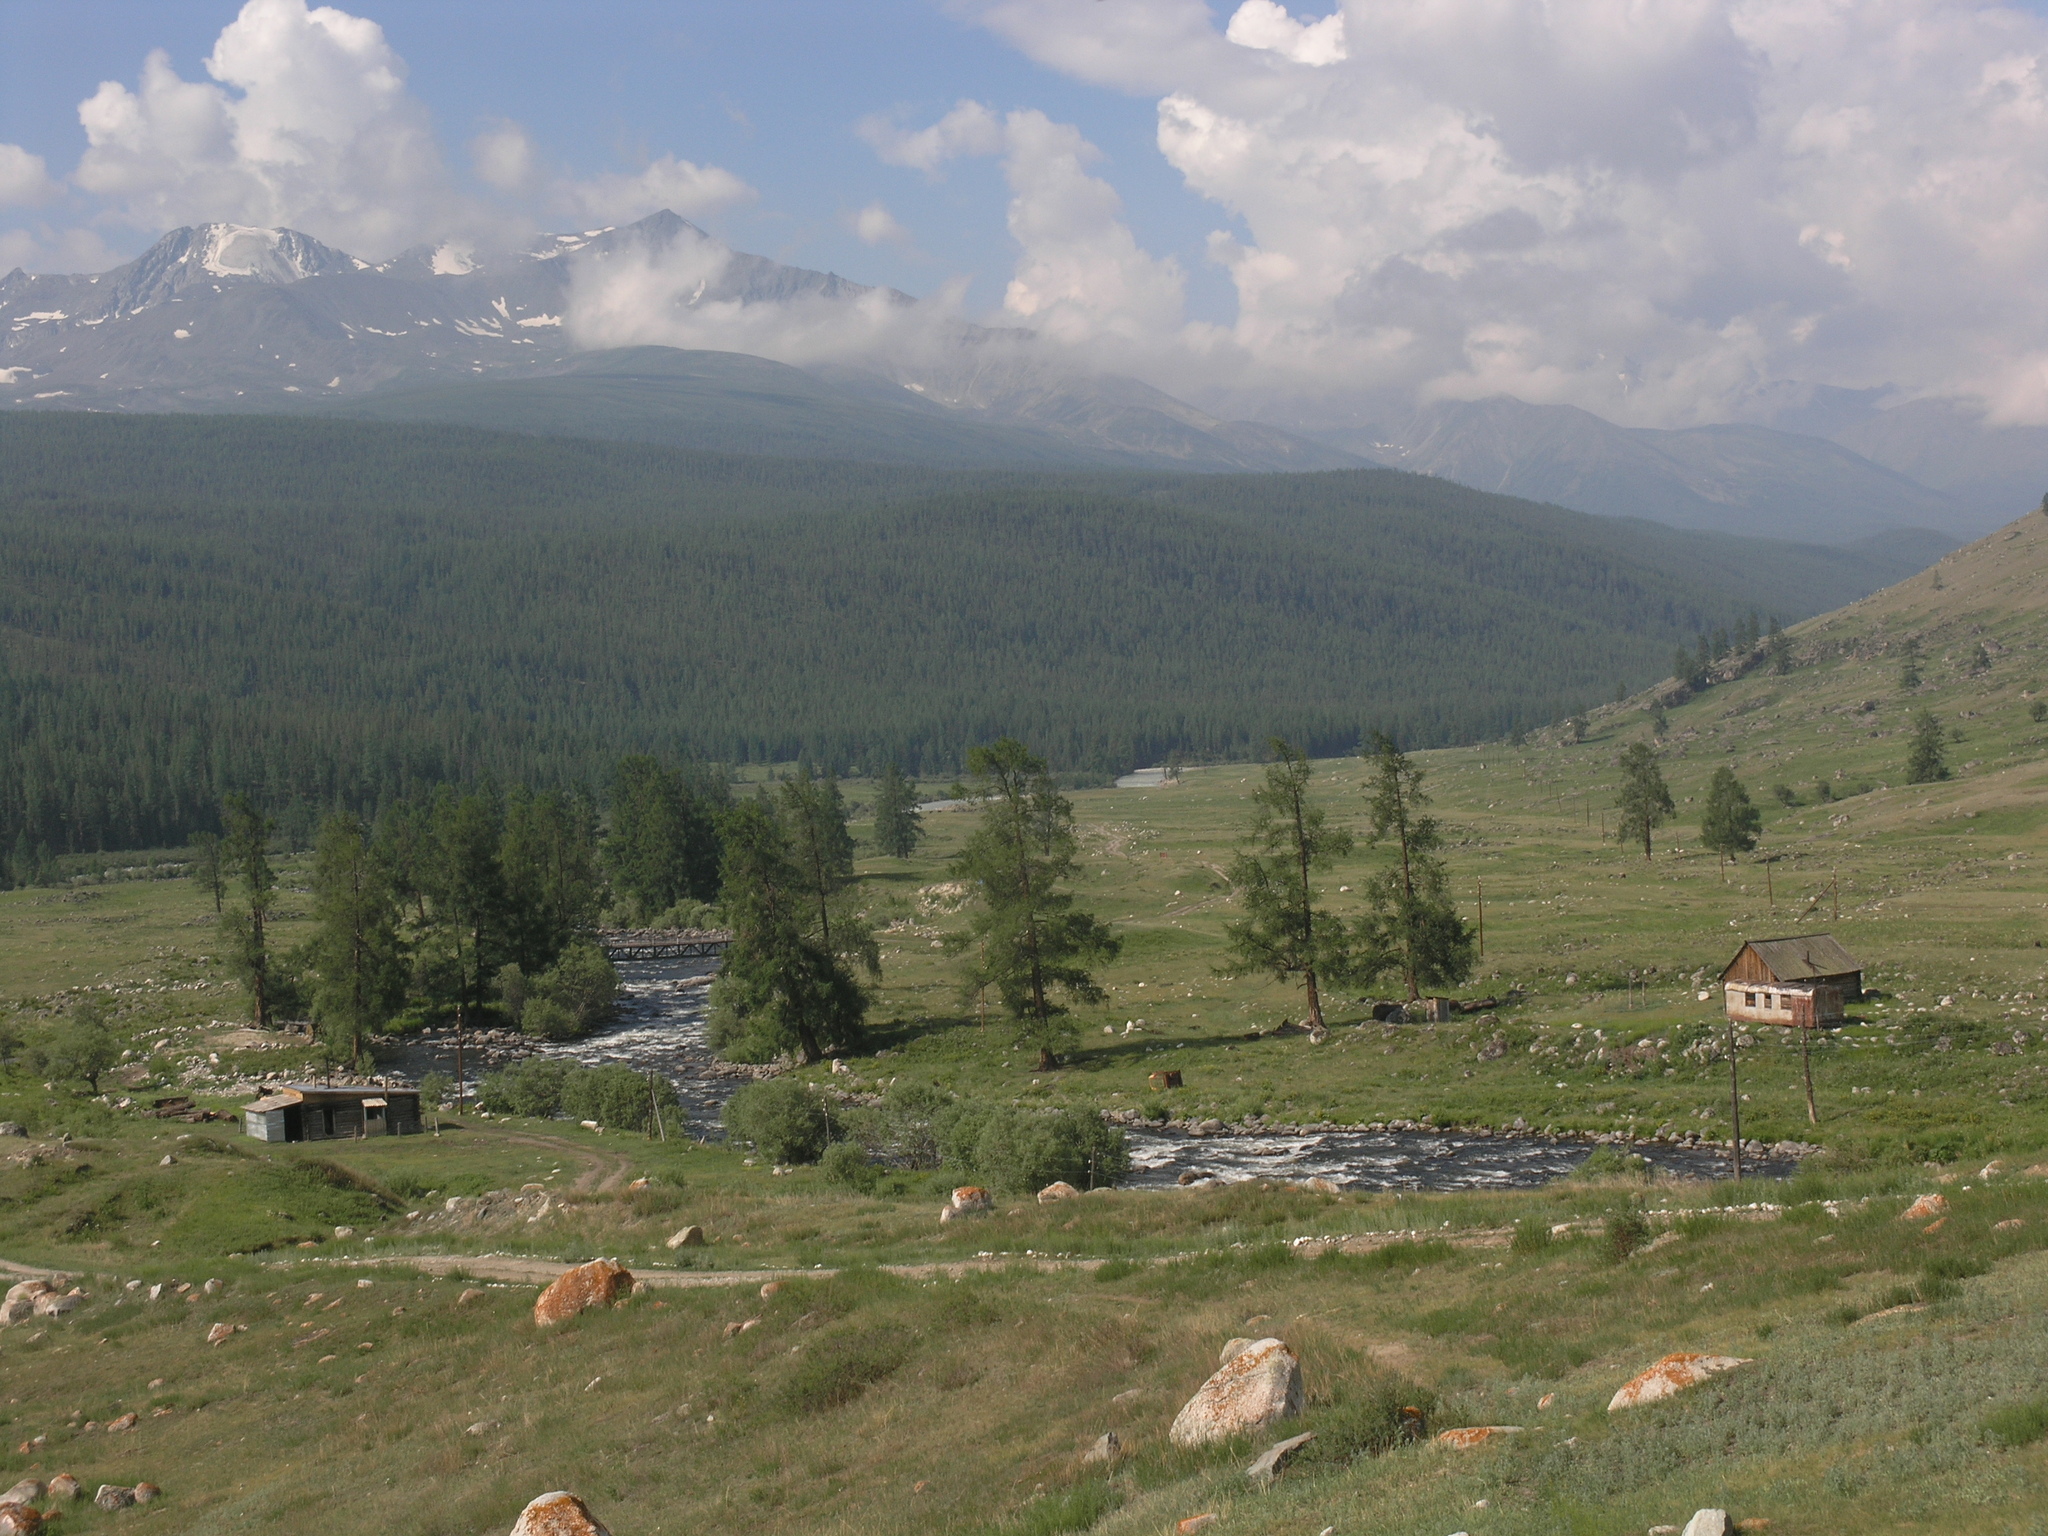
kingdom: Plantae
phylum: Tracheophyta
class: Pinopsida
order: Pinales
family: Pinaceae
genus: Larix
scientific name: Larix sibirica
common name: Siberian larch
